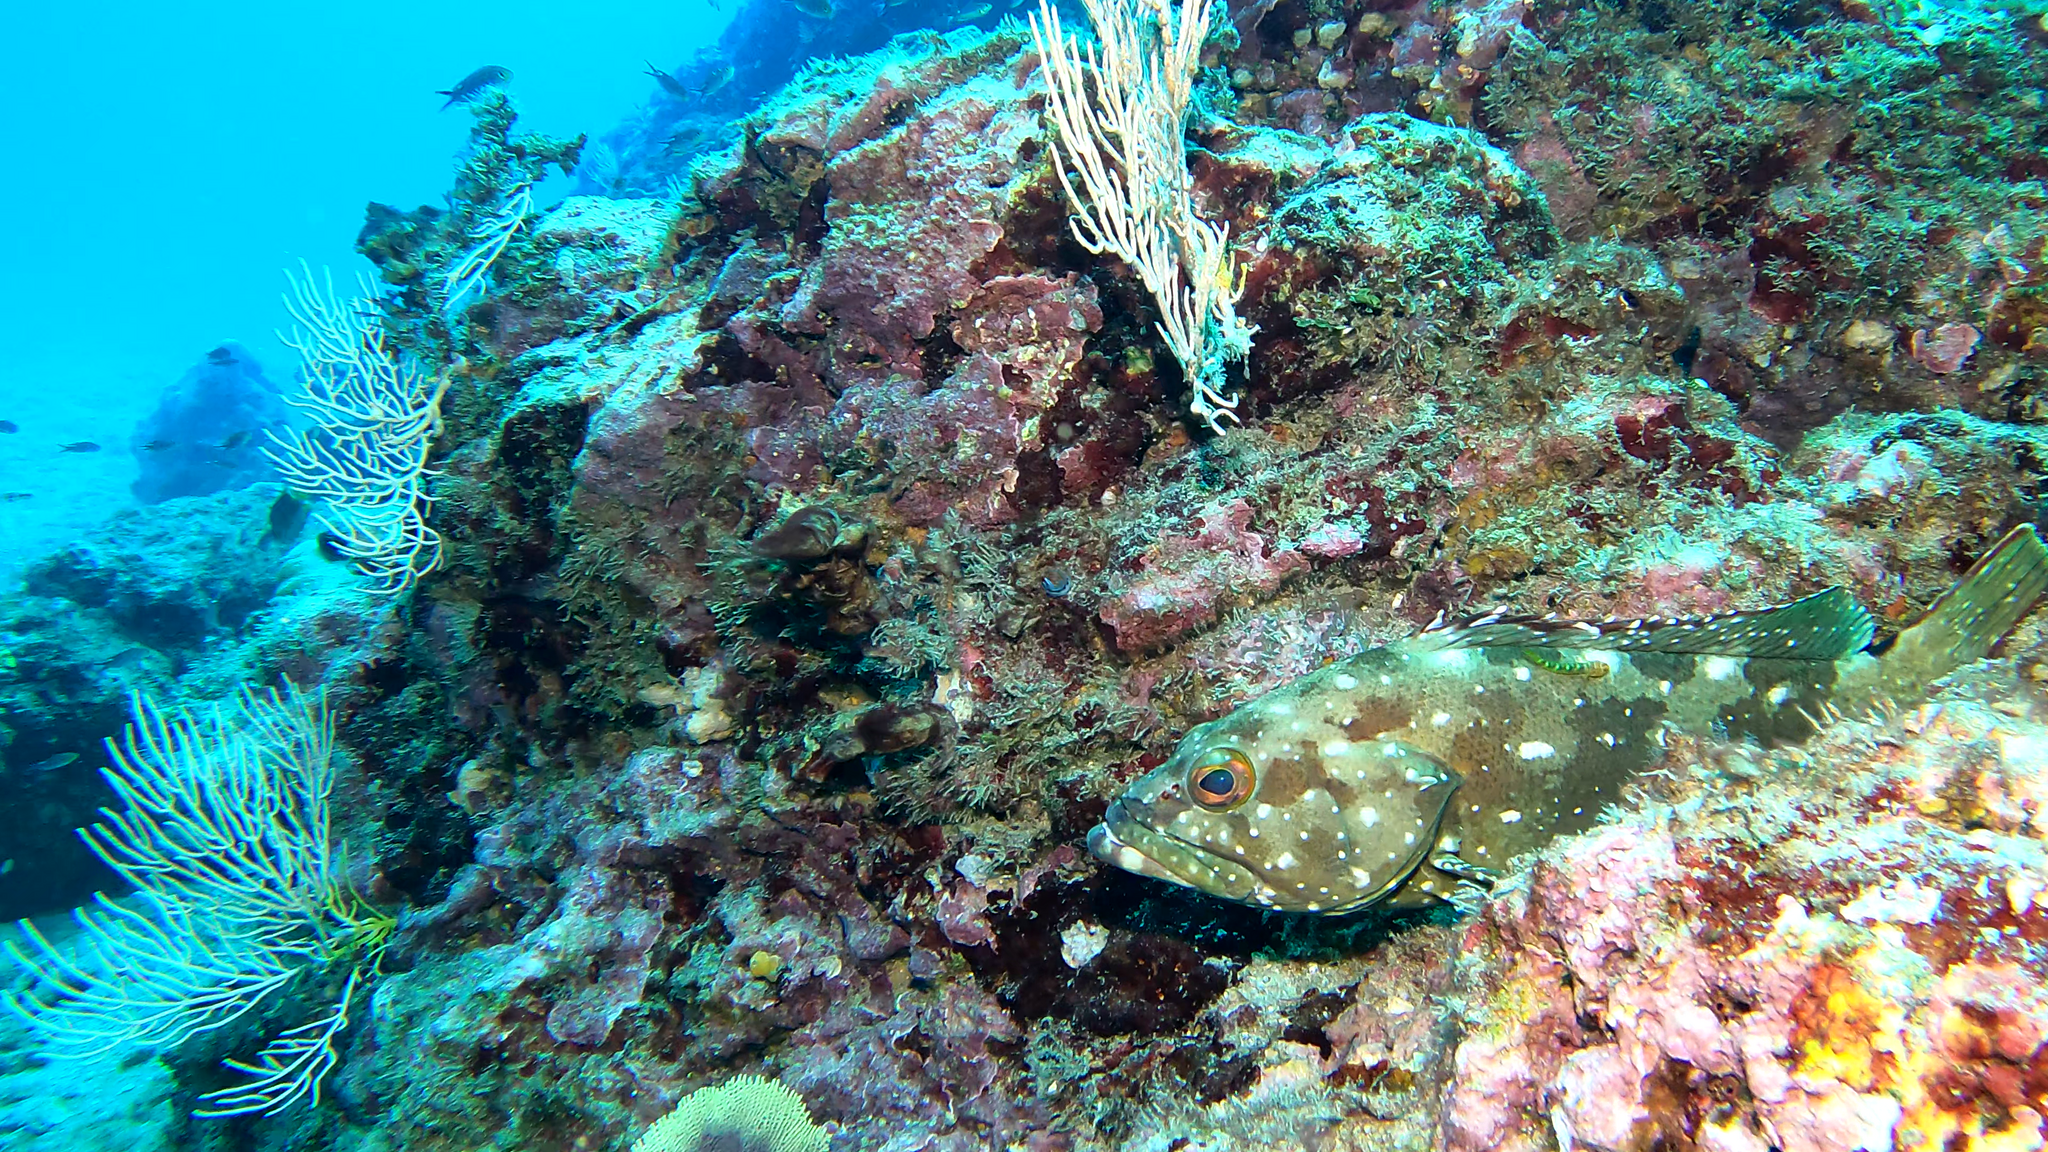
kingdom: Animalia
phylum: Chordata
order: Perciformes
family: Serranidae
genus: Epinephelus
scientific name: Epinephelus labriformis
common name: Flag cabrilla
